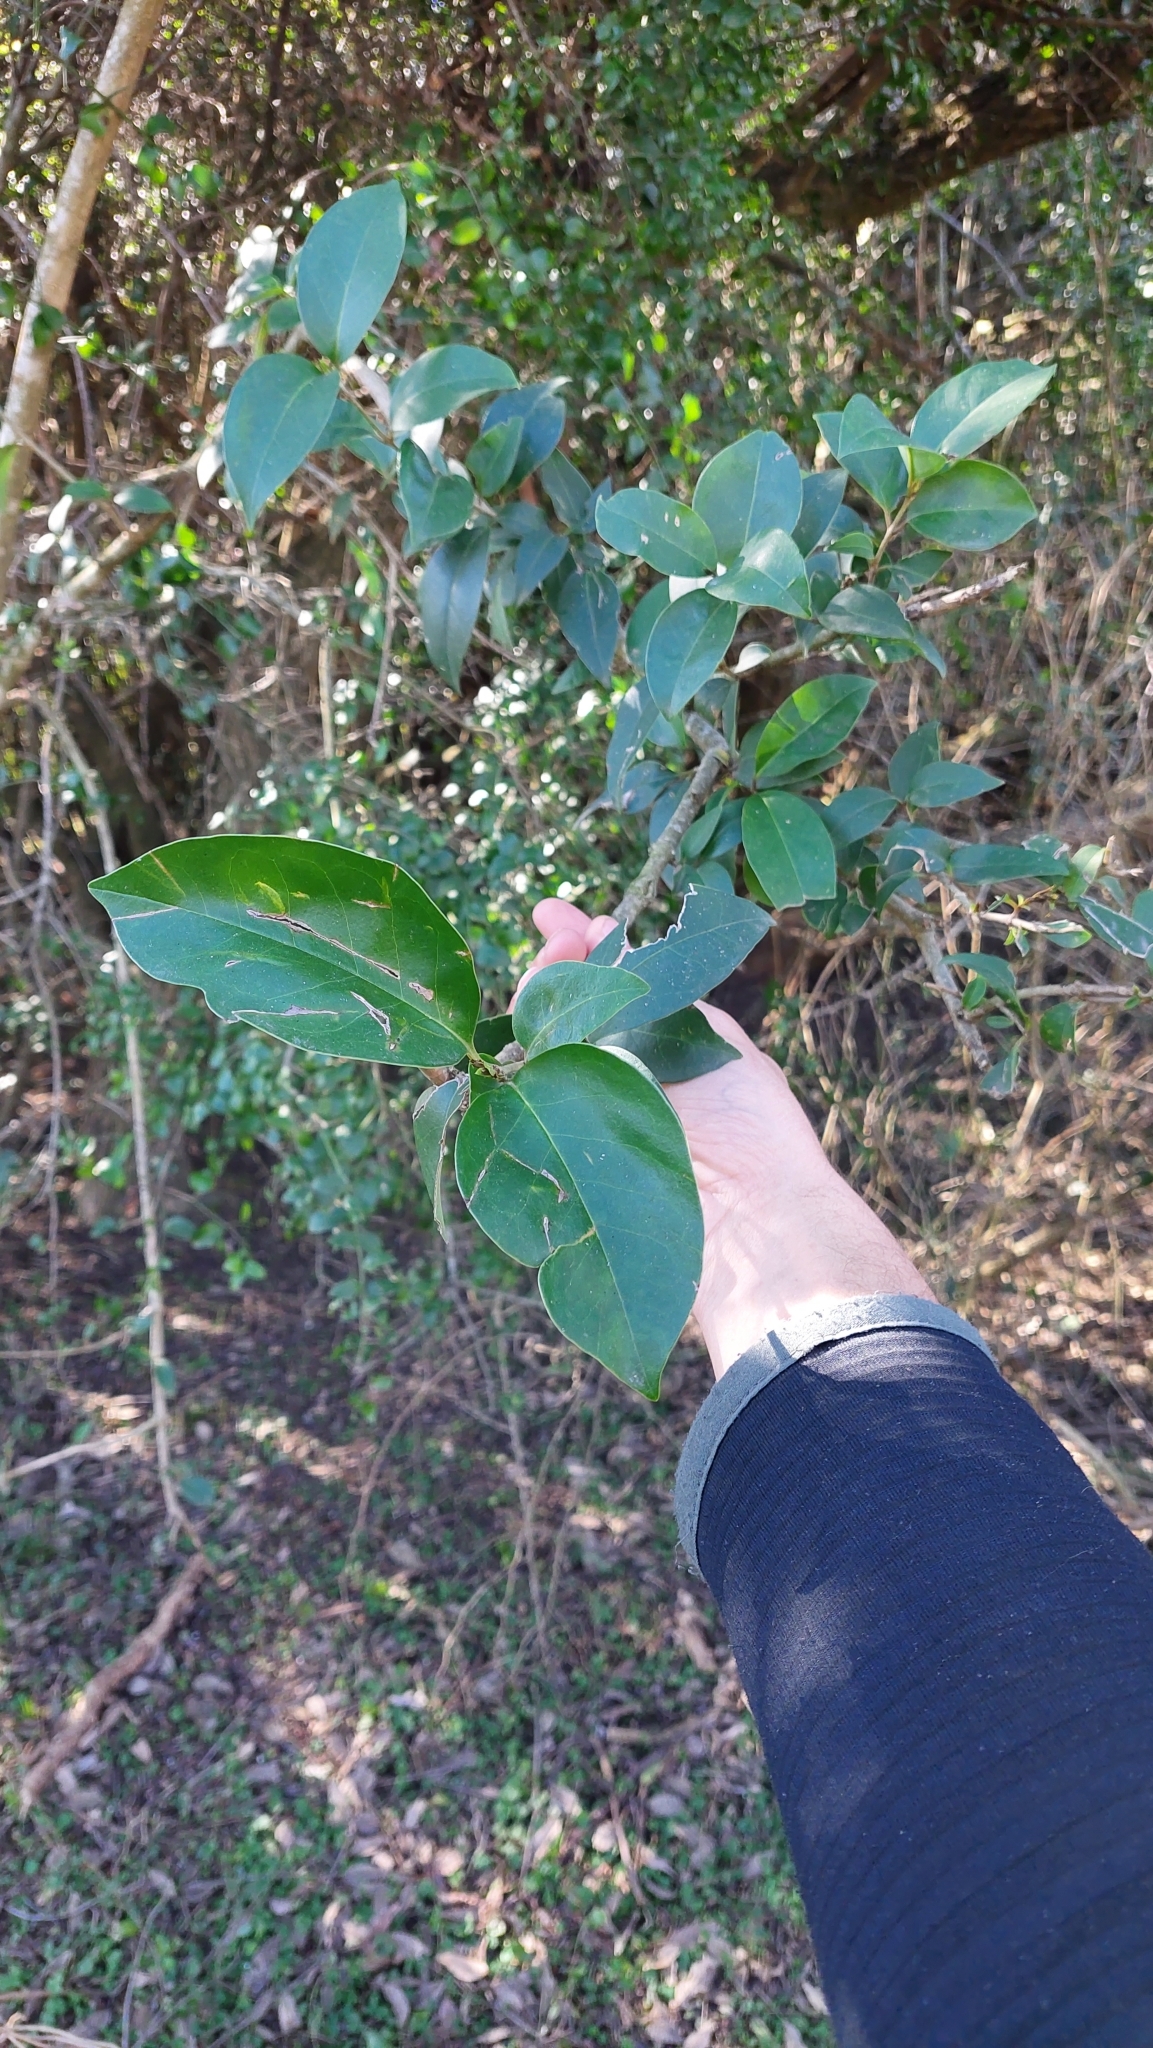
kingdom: Plantae
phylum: Tracheophyta
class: Magnoliopsida
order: Lamiales
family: Oleaceae
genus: Ligustrum
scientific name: Ligustrum lucidum
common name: Glossy privet
